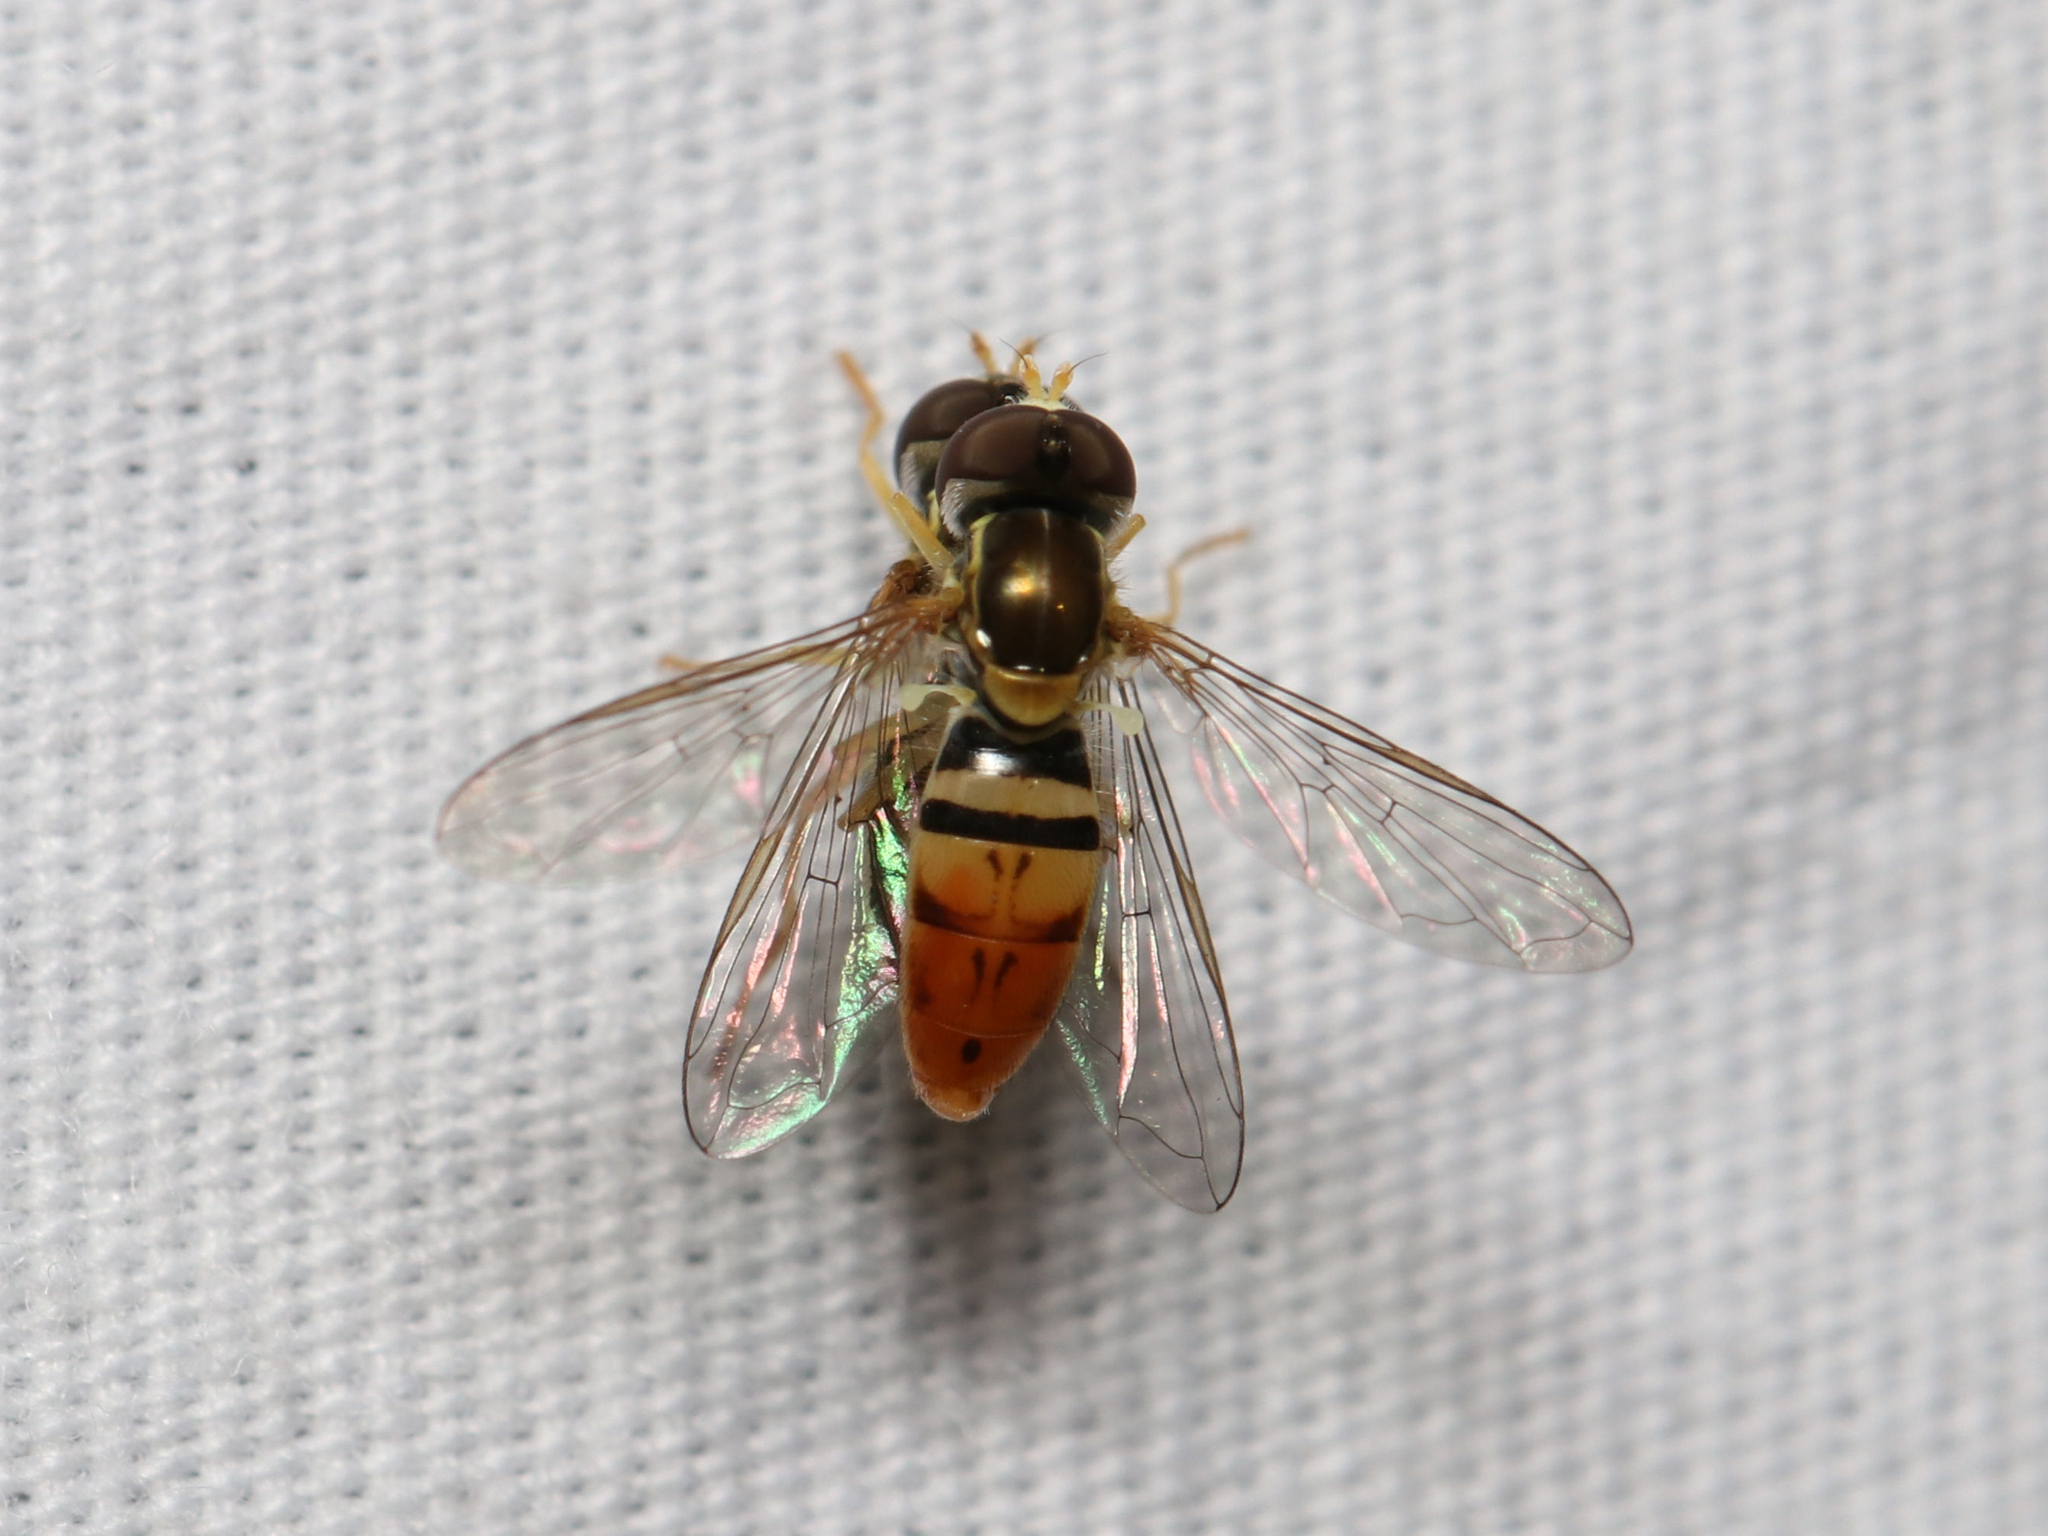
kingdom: Animalia
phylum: Arthropoda
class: Insecta
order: Diptera
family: Syrphidae
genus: Toxomerus
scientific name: Toxomerus marginatus
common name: Syrphid fly
